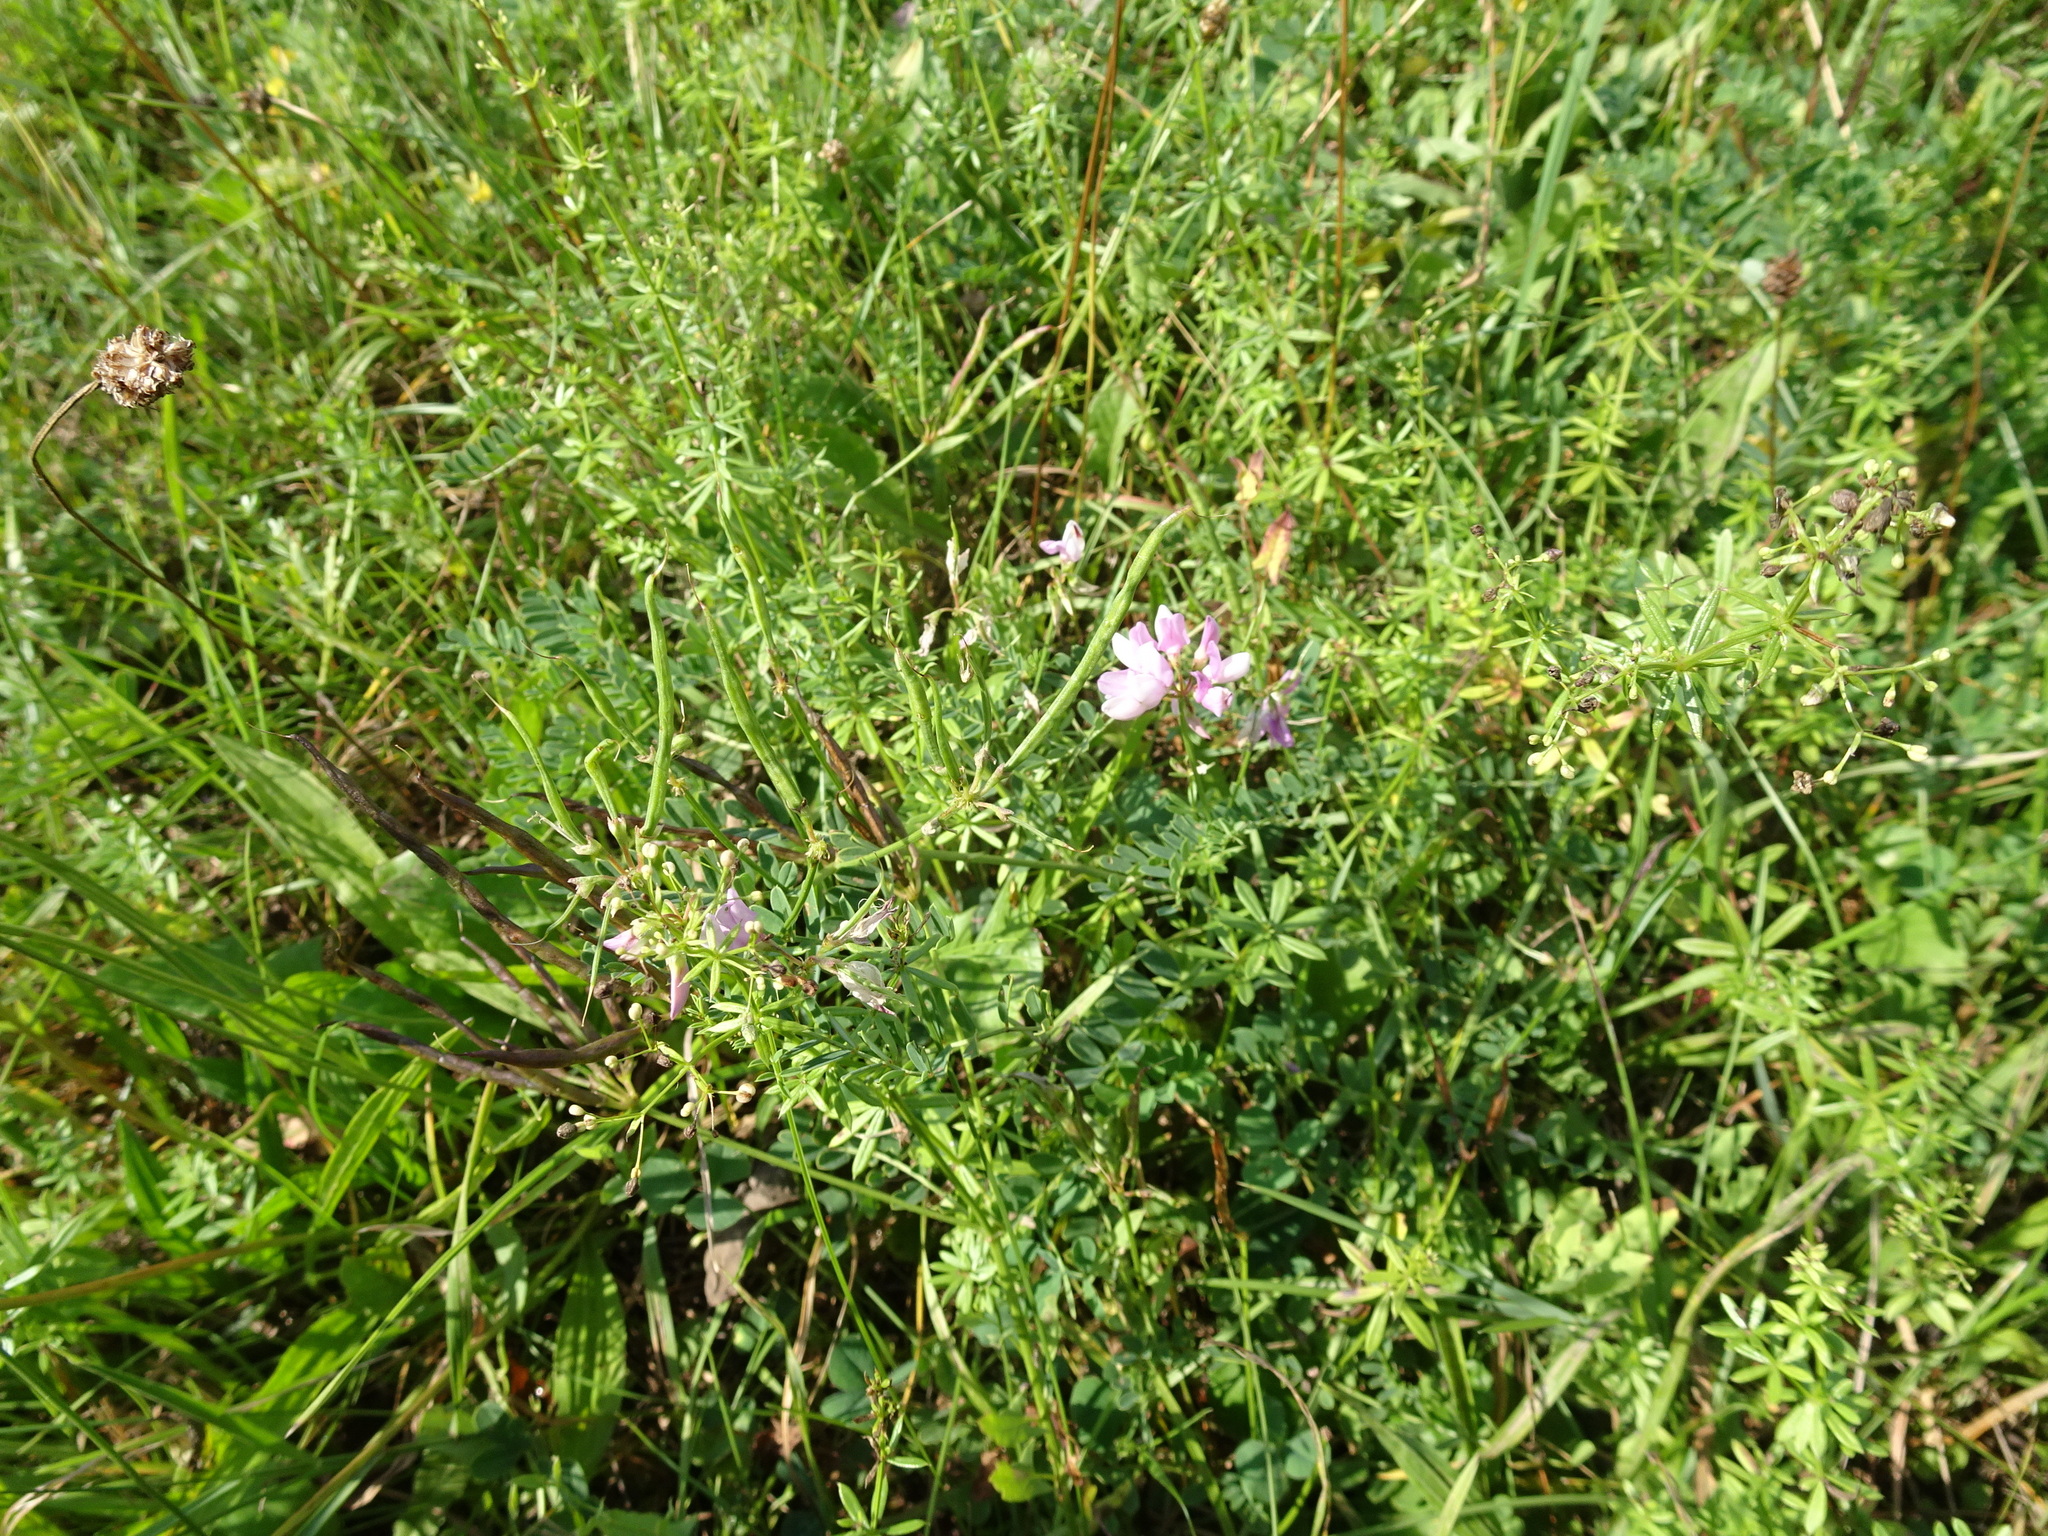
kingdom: Plantae
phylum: Tracheophyta
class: Magnoliopsida
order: Fabales
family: Fabaceae
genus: Coronilla
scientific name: Coronilla varia
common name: Crownvetch
